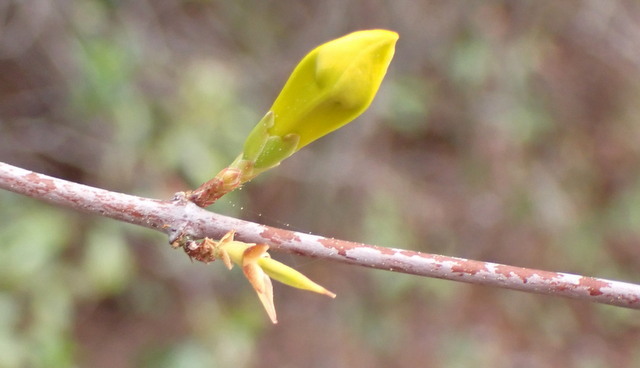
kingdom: Plantae
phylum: Tracheophyta
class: Magnoliopsida
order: Gentianales
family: Gelsemiaceae
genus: Gelsemium
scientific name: Gelsemium sempervirens
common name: Carolina-jasmine
